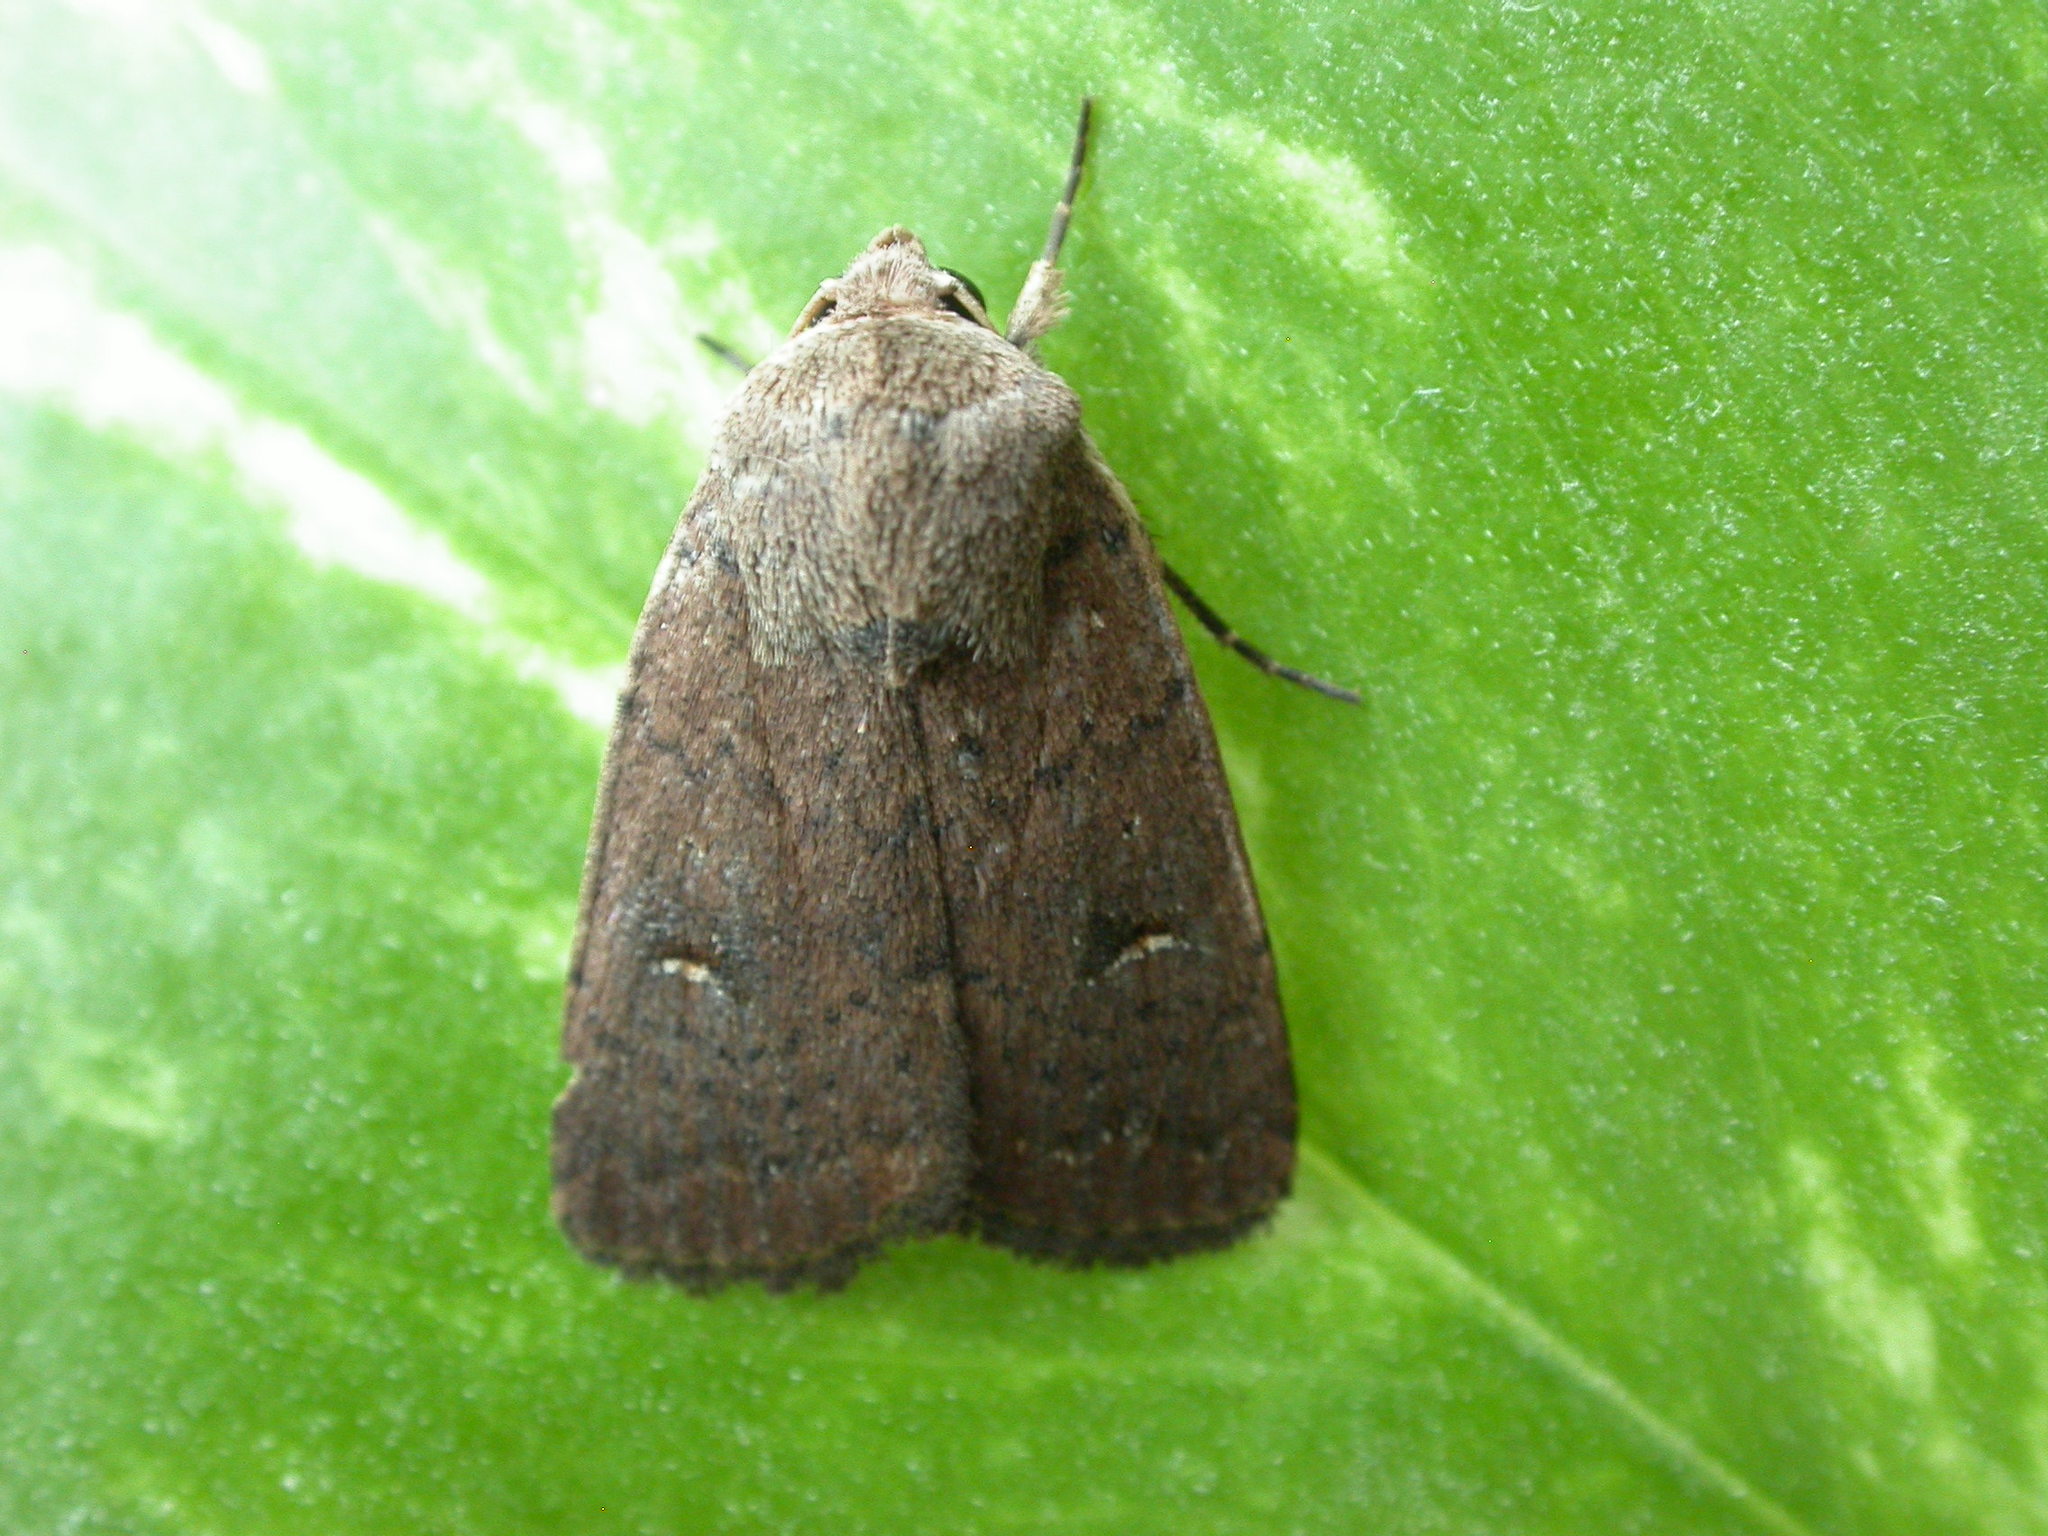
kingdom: Animalia
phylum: Arthropoda
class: Insecta
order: Lepidoptera
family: Noctuidae
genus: Proteuxoa
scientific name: Proteuxoa hypochalchis
